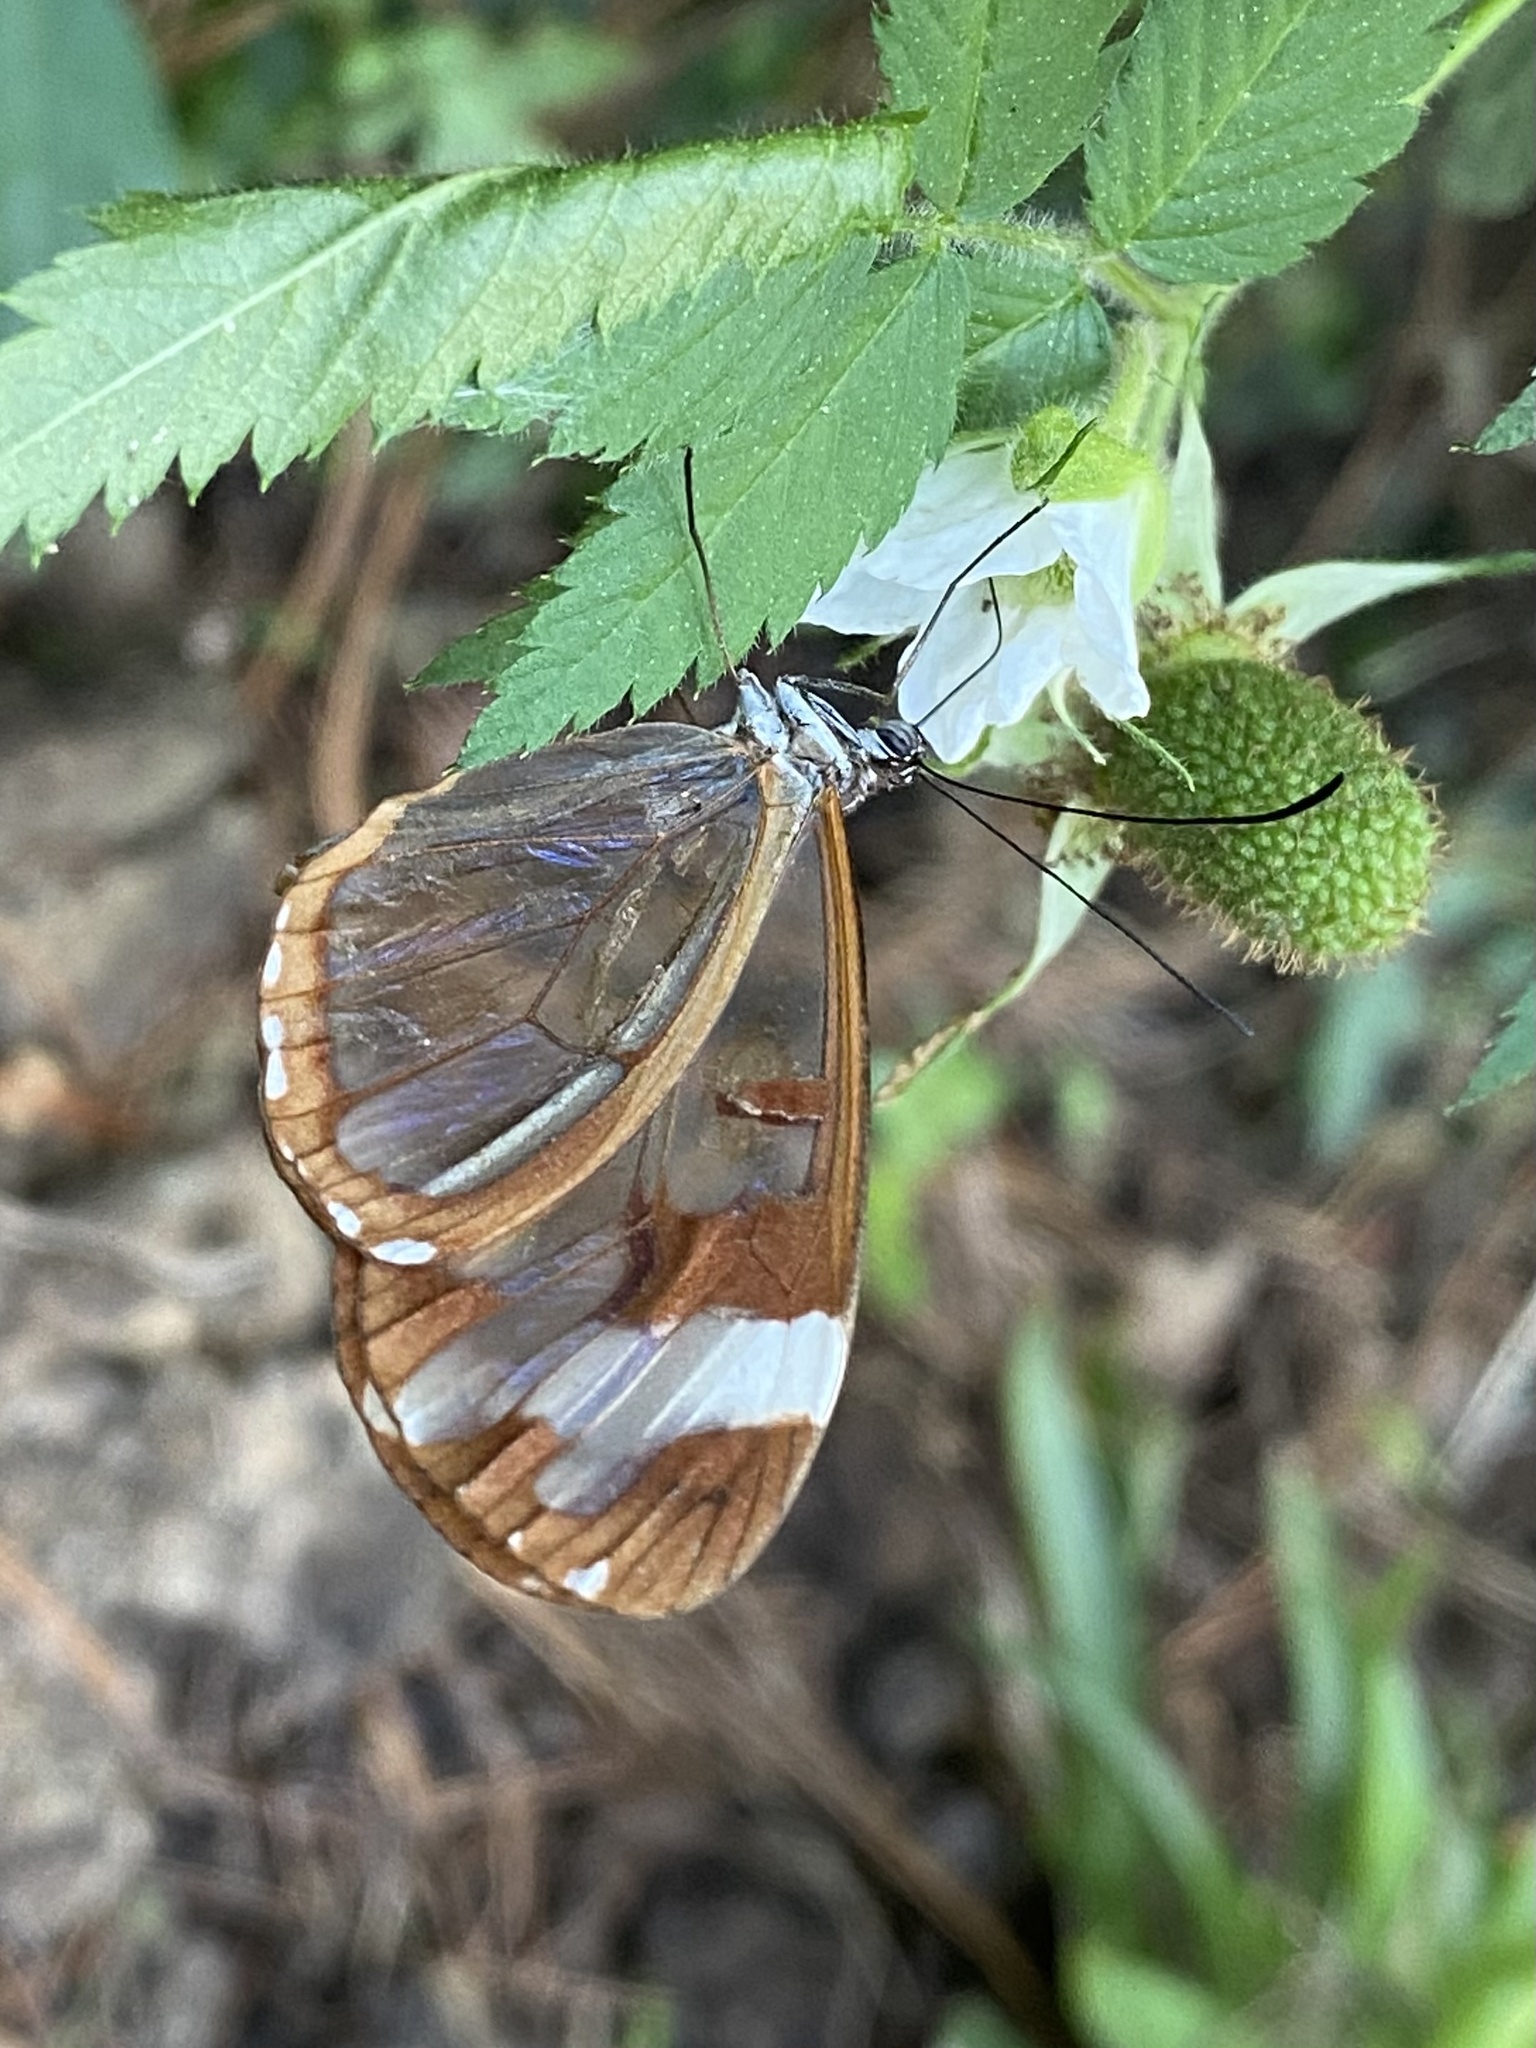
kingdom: Animalia
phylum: Arthropoda
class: Insecta
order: Lepidoptera
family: Nymphalidae
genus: Oleria
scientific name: Oleria zea
